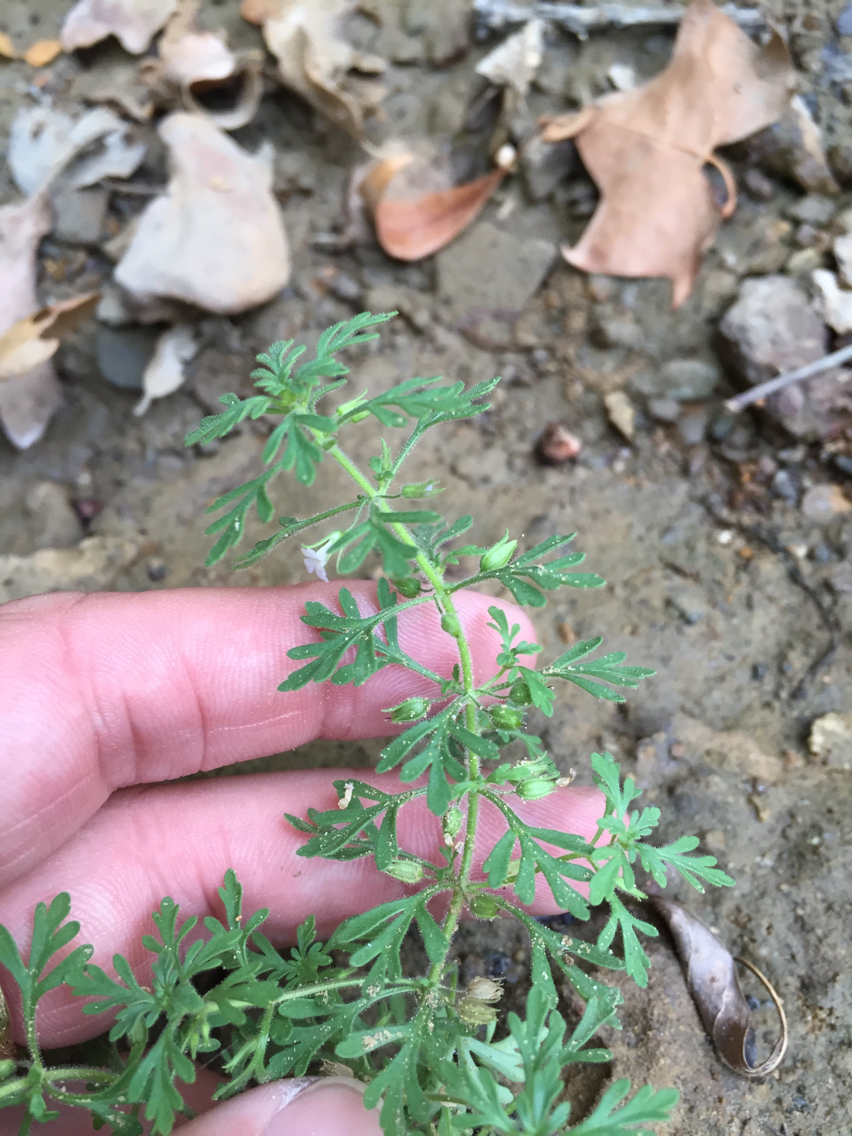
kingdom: Plantae
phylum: Tracheophyta
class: Magnoliopsida
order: Lamiales
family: Plantaginaceae
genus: Leucospora
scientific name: Leucospora multifida
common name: Narrow-leaf paleseed
